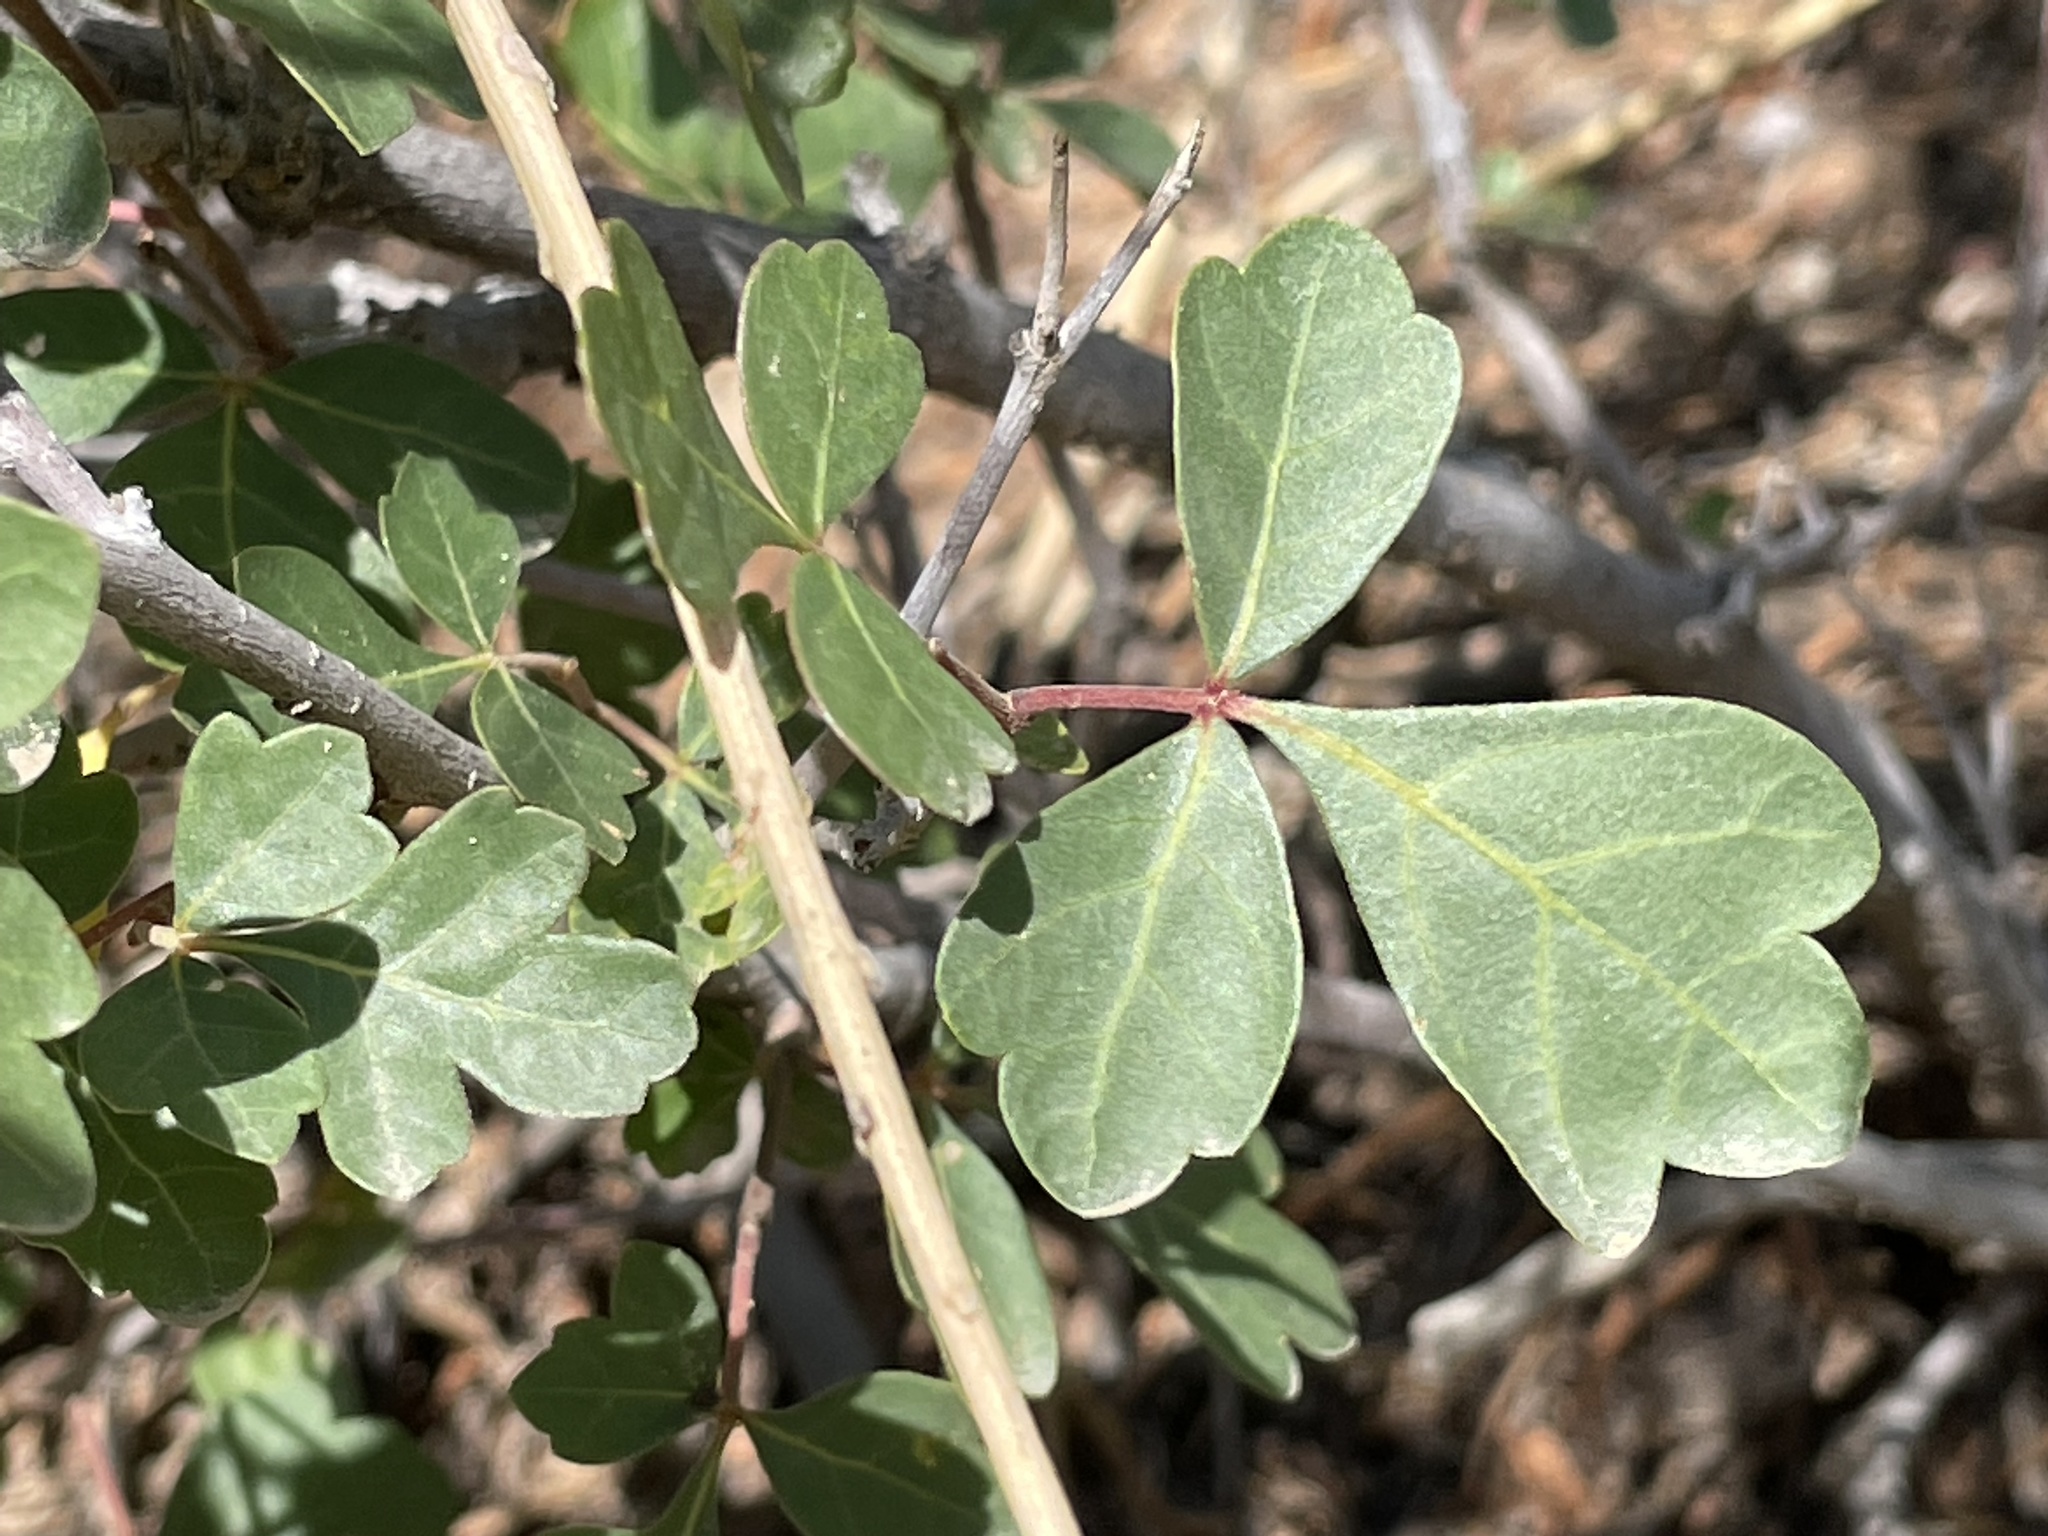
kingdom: Plantae
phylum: Tracheophyta
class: Magnoliopsida
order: Sapindales
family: Anacardiaceae
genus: Rhus
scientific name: Rhus trilobata
